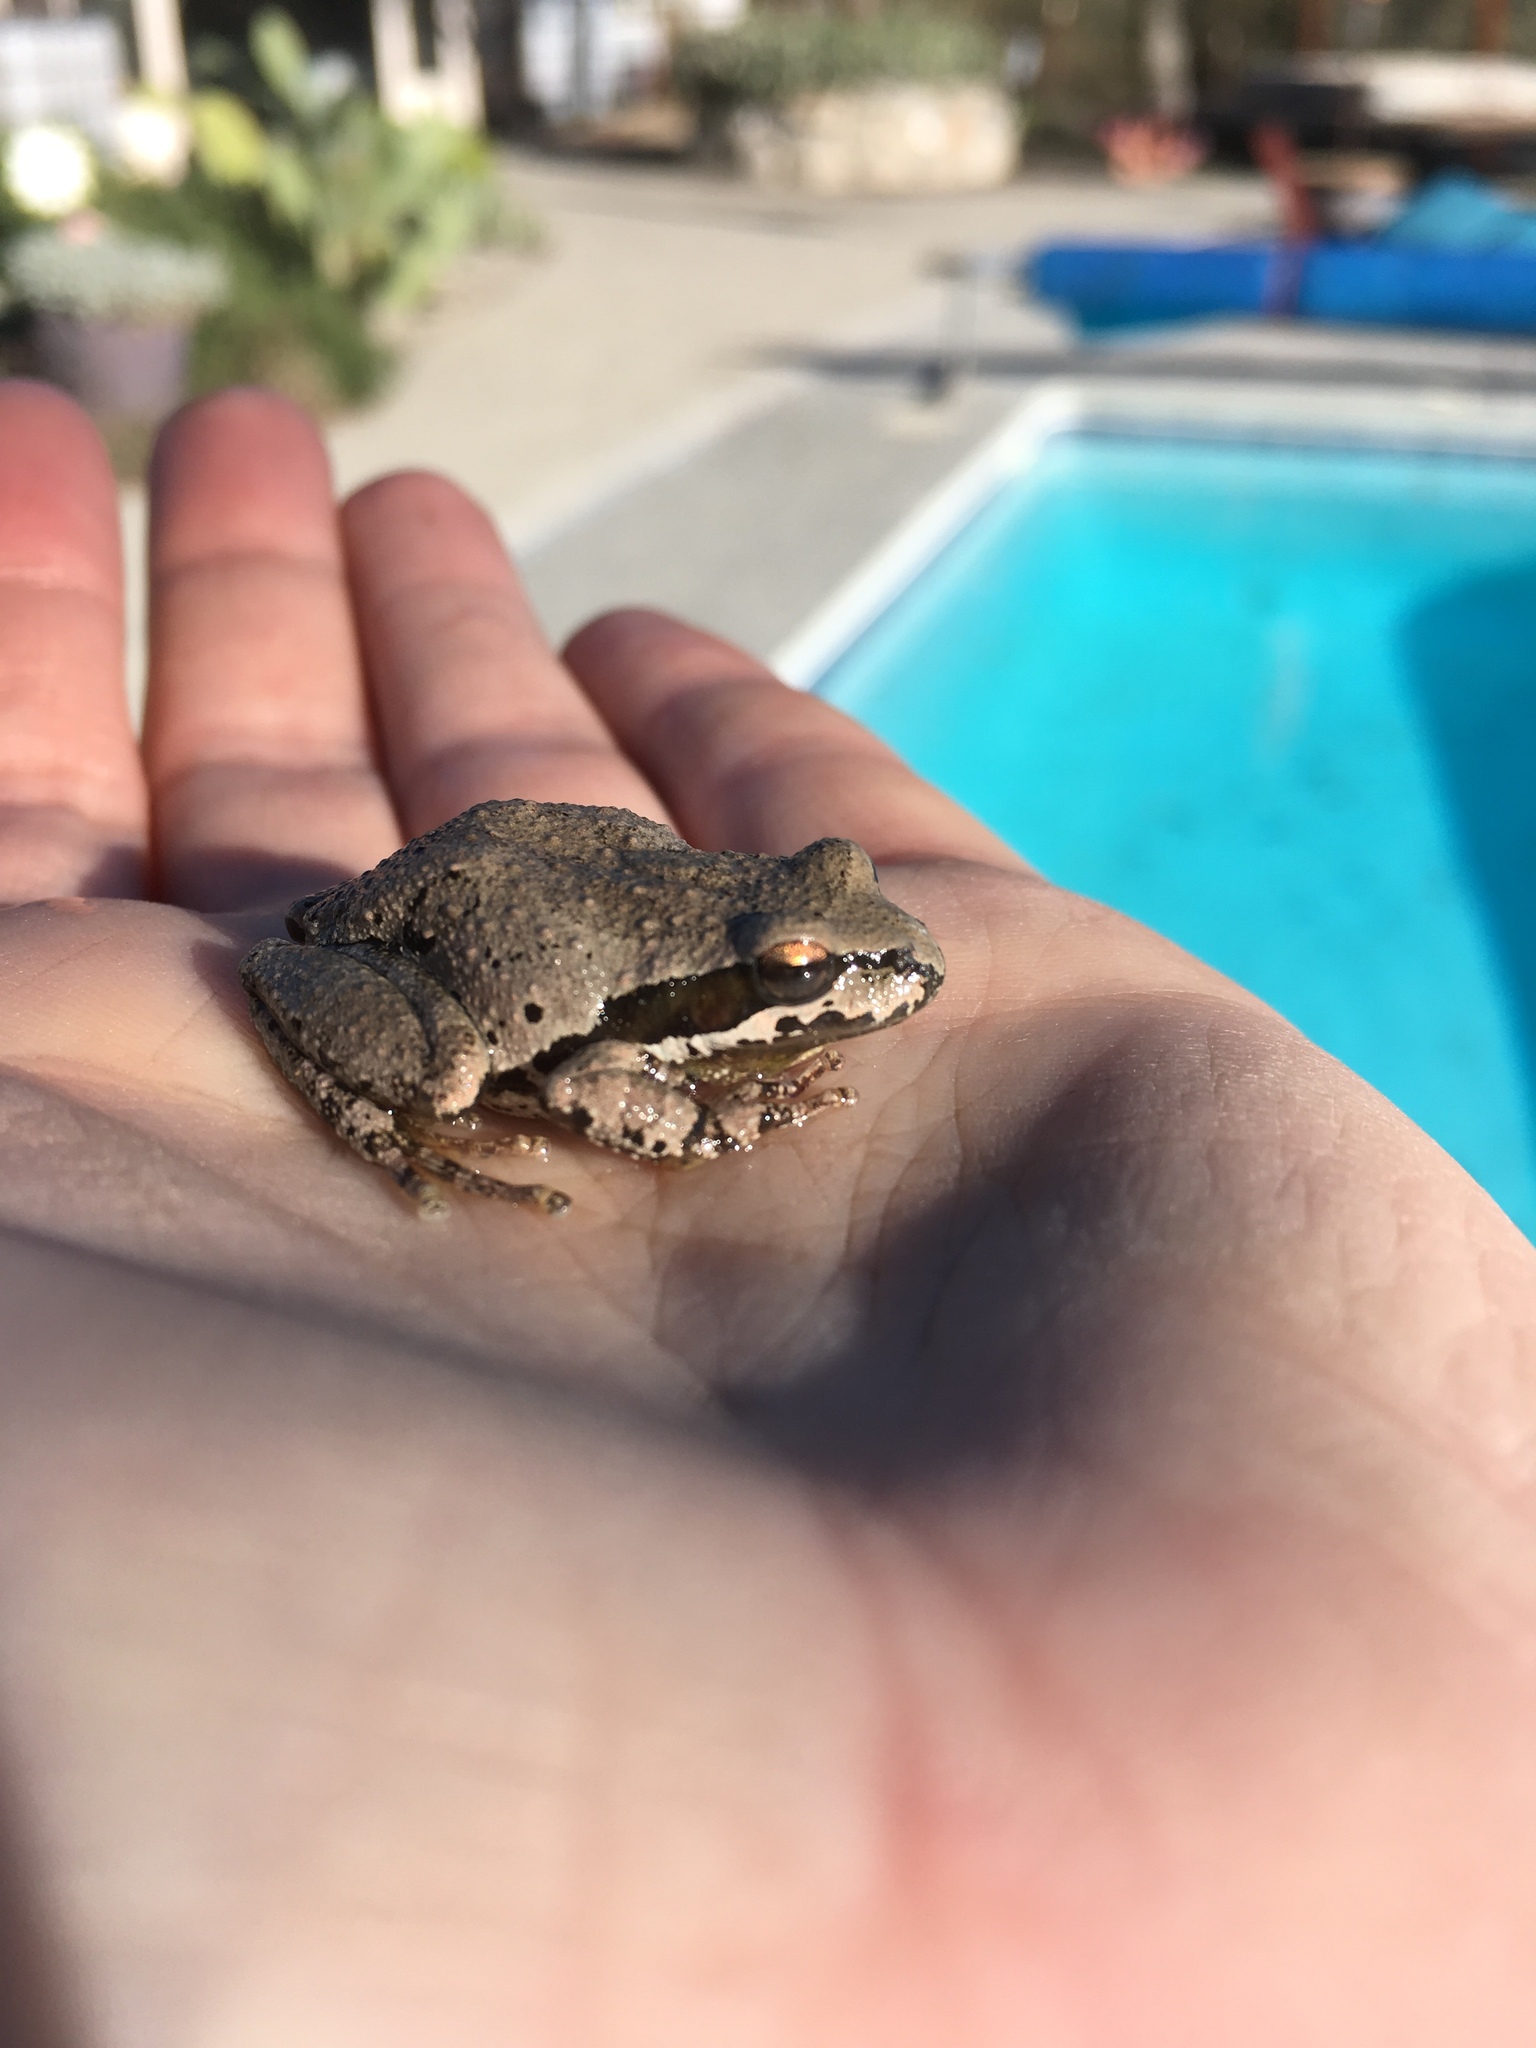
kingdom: Animalia
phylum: Chordata
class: Amphibia
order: Anura
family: Hylidae
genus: Pseudacris
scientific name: Pseudacris regilla
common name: Pacific chorus frog
